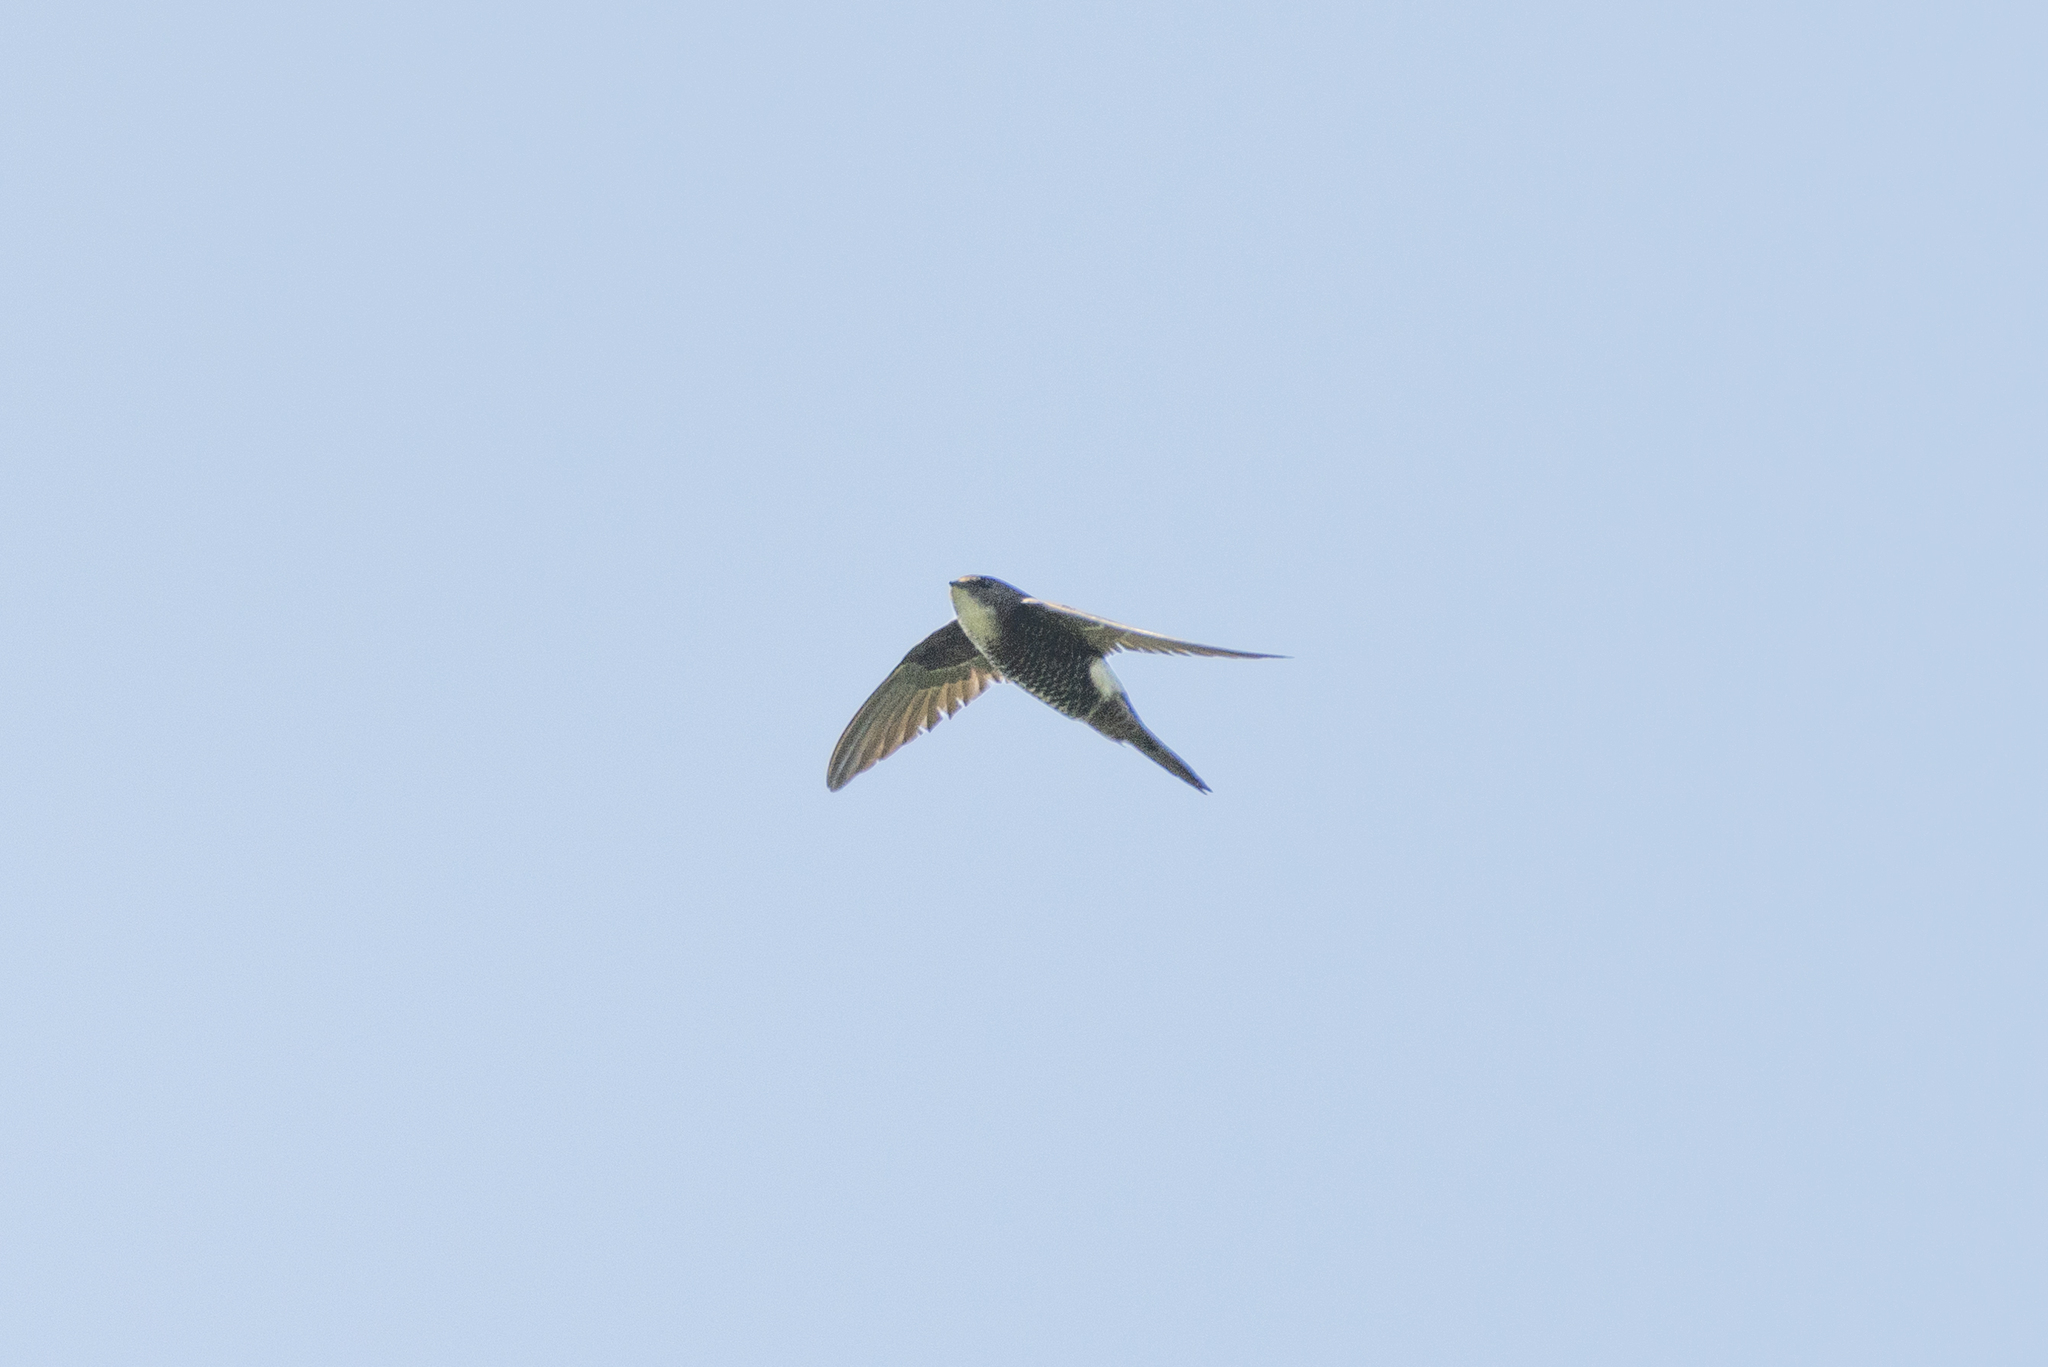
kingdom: Animalia
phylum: Chordata
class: Aves
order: Apodiformes
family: Apodidae
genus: Apus
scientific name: Apus pacificus
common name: Pacific swift
